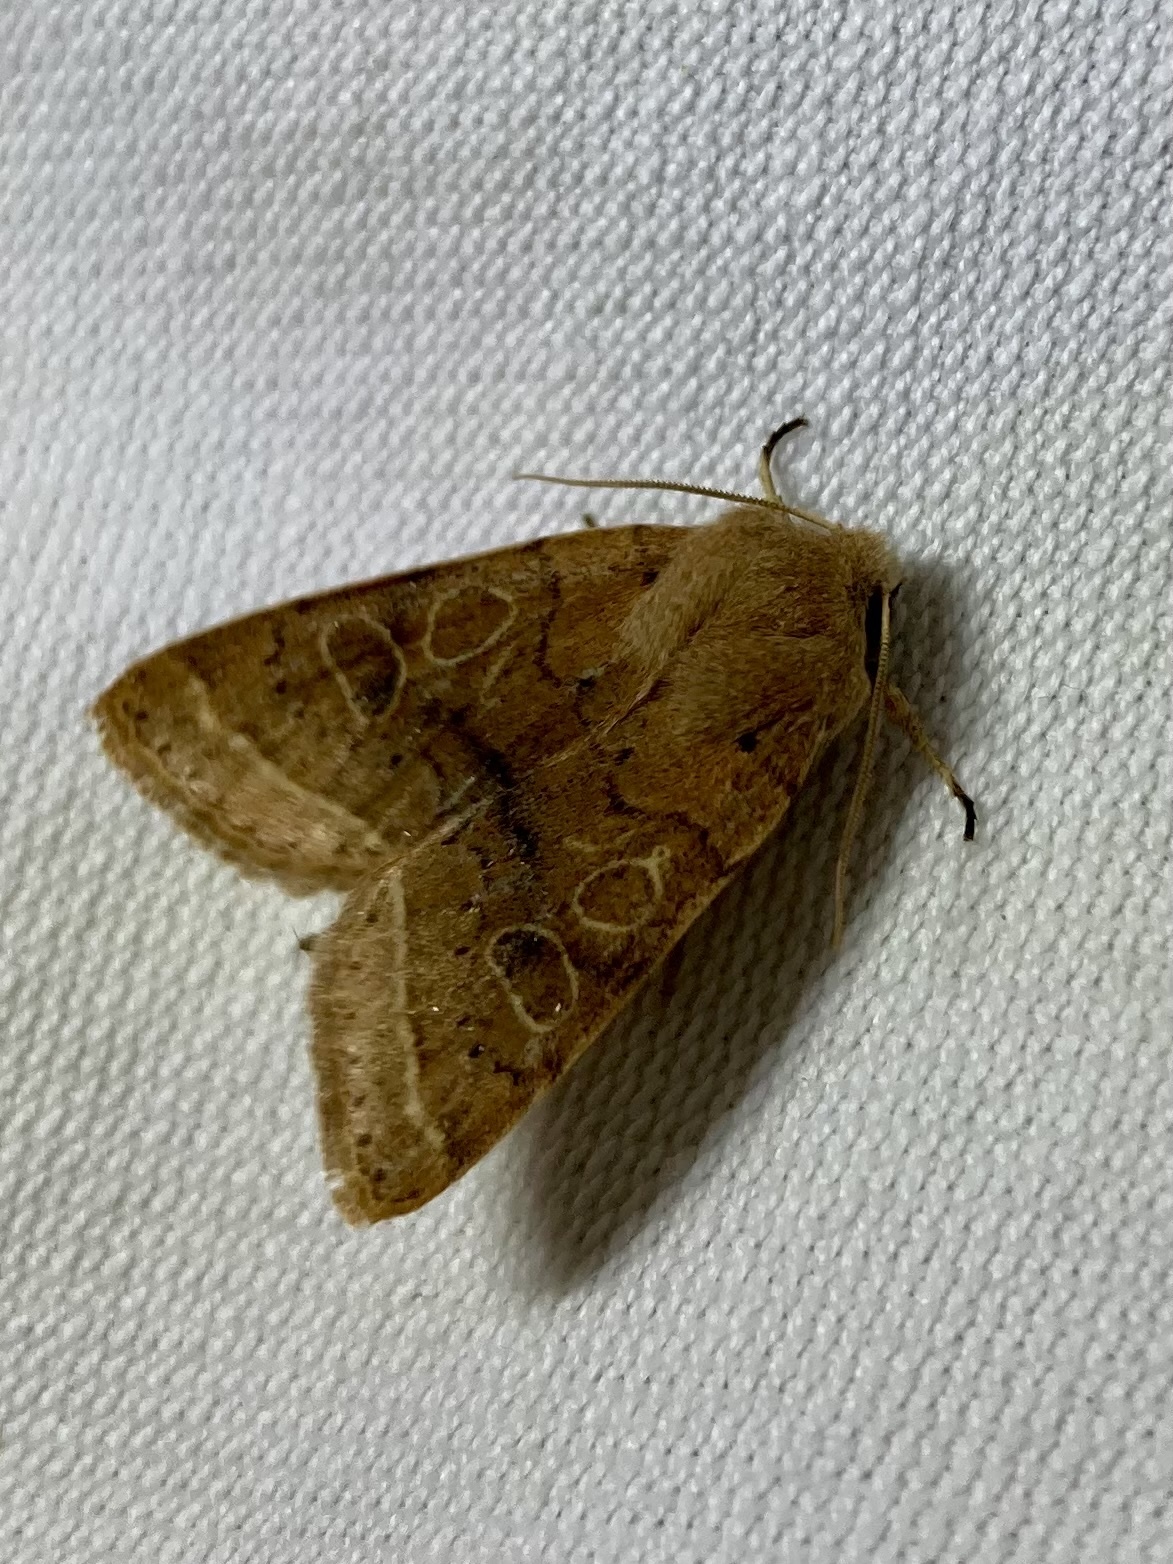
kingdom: Animalia
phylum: Arthropoda
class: Insecta
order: Lepidoptera
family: Noctuidae
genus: Orthosia
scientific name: Orthosia cerasi
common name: Common quaker
